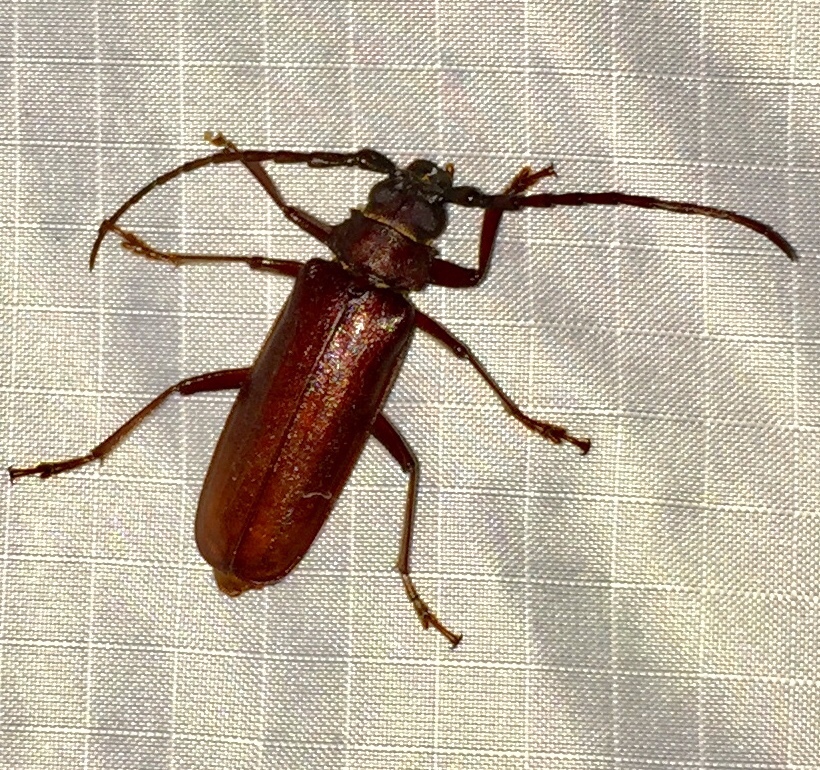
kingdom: Animalia
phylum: Arthropoda
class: Insecta
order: Coleoptera
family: Cerambycidae
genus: Orthosoma
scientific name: Orthosoma brunneum
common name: Brown prionid beetle
